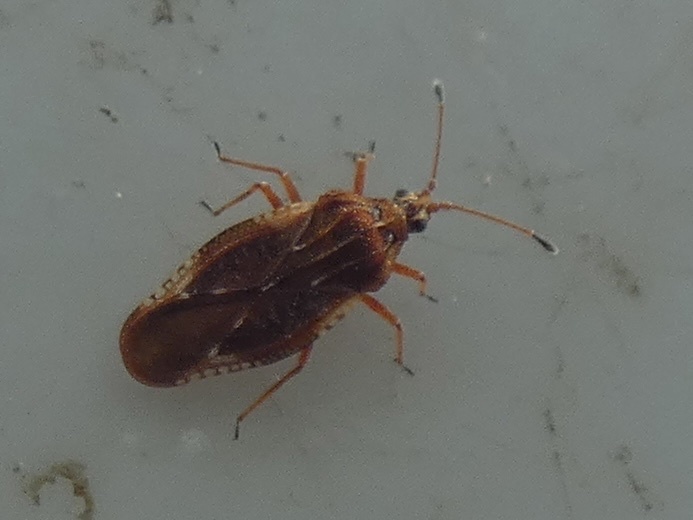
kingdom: Animalia
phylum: Arthropoda
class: Insecta
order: Hemiptera
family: Tingidae
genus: Physatocheila
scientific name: Physatocheila dumetorum
